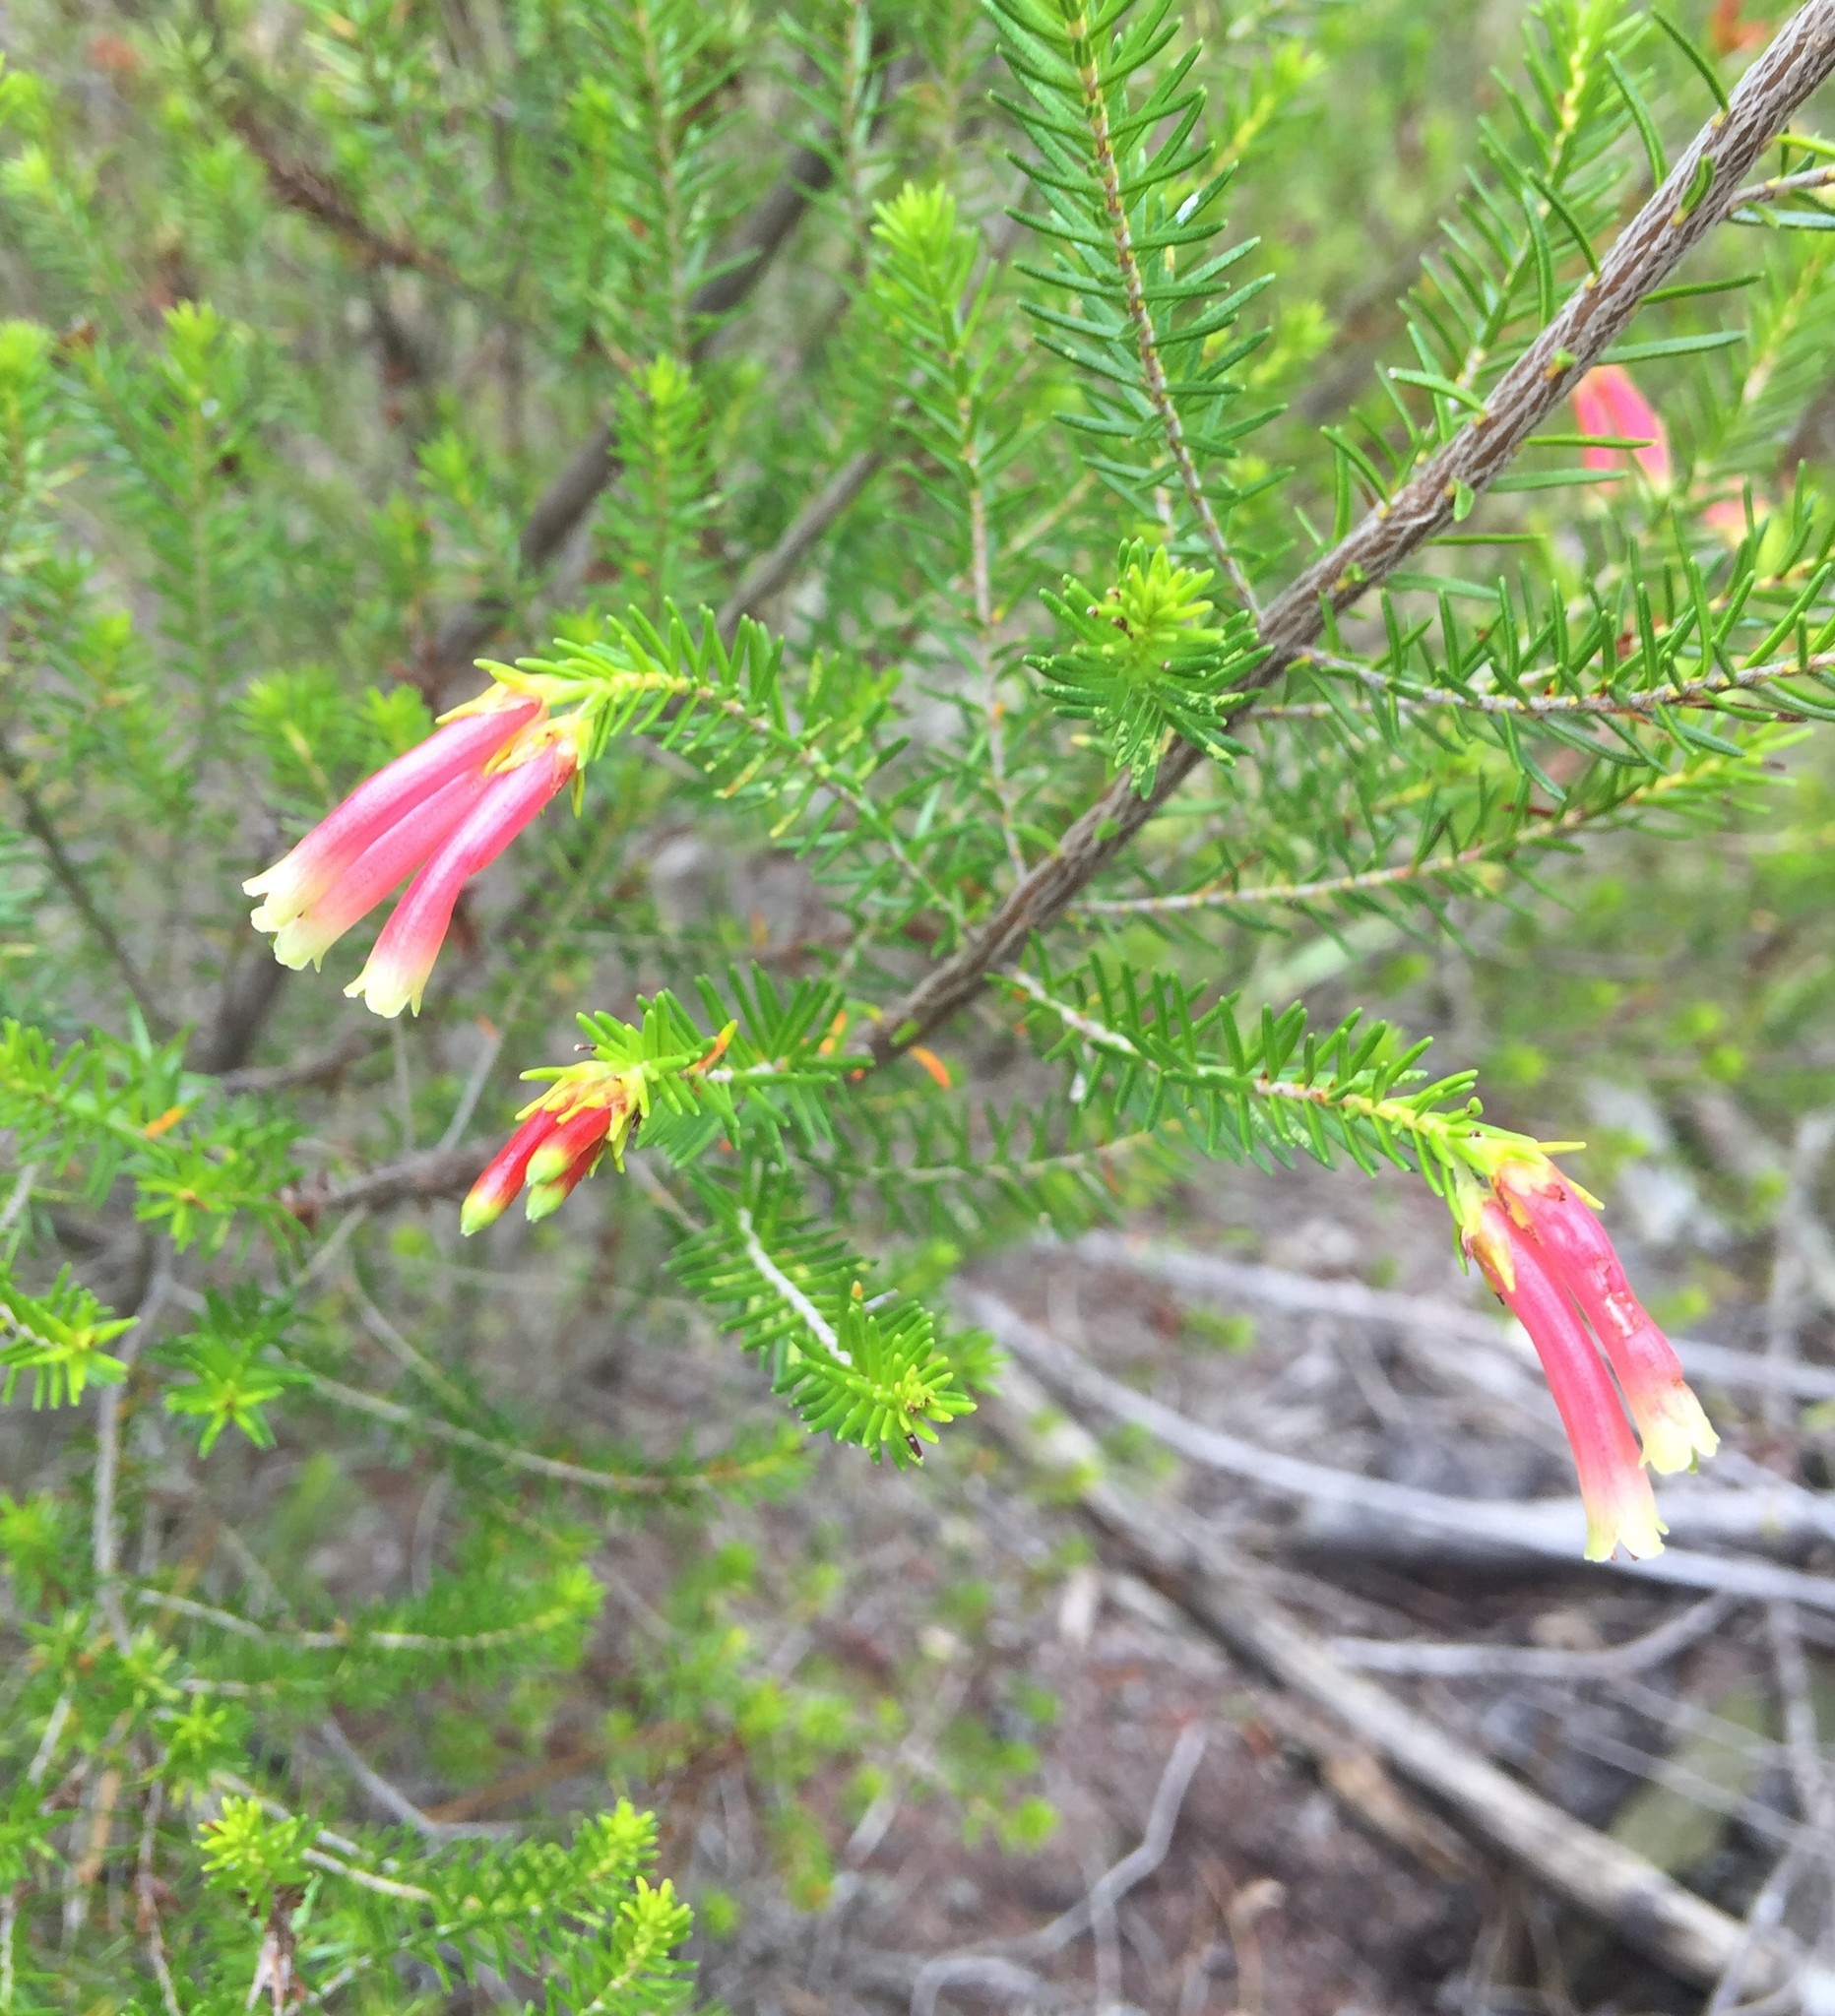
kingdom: Plantae
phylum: Tracheophyta
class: Magnoliopsida
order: Ericales
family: Ericaceae
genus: Erica
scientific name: Erica discolor
